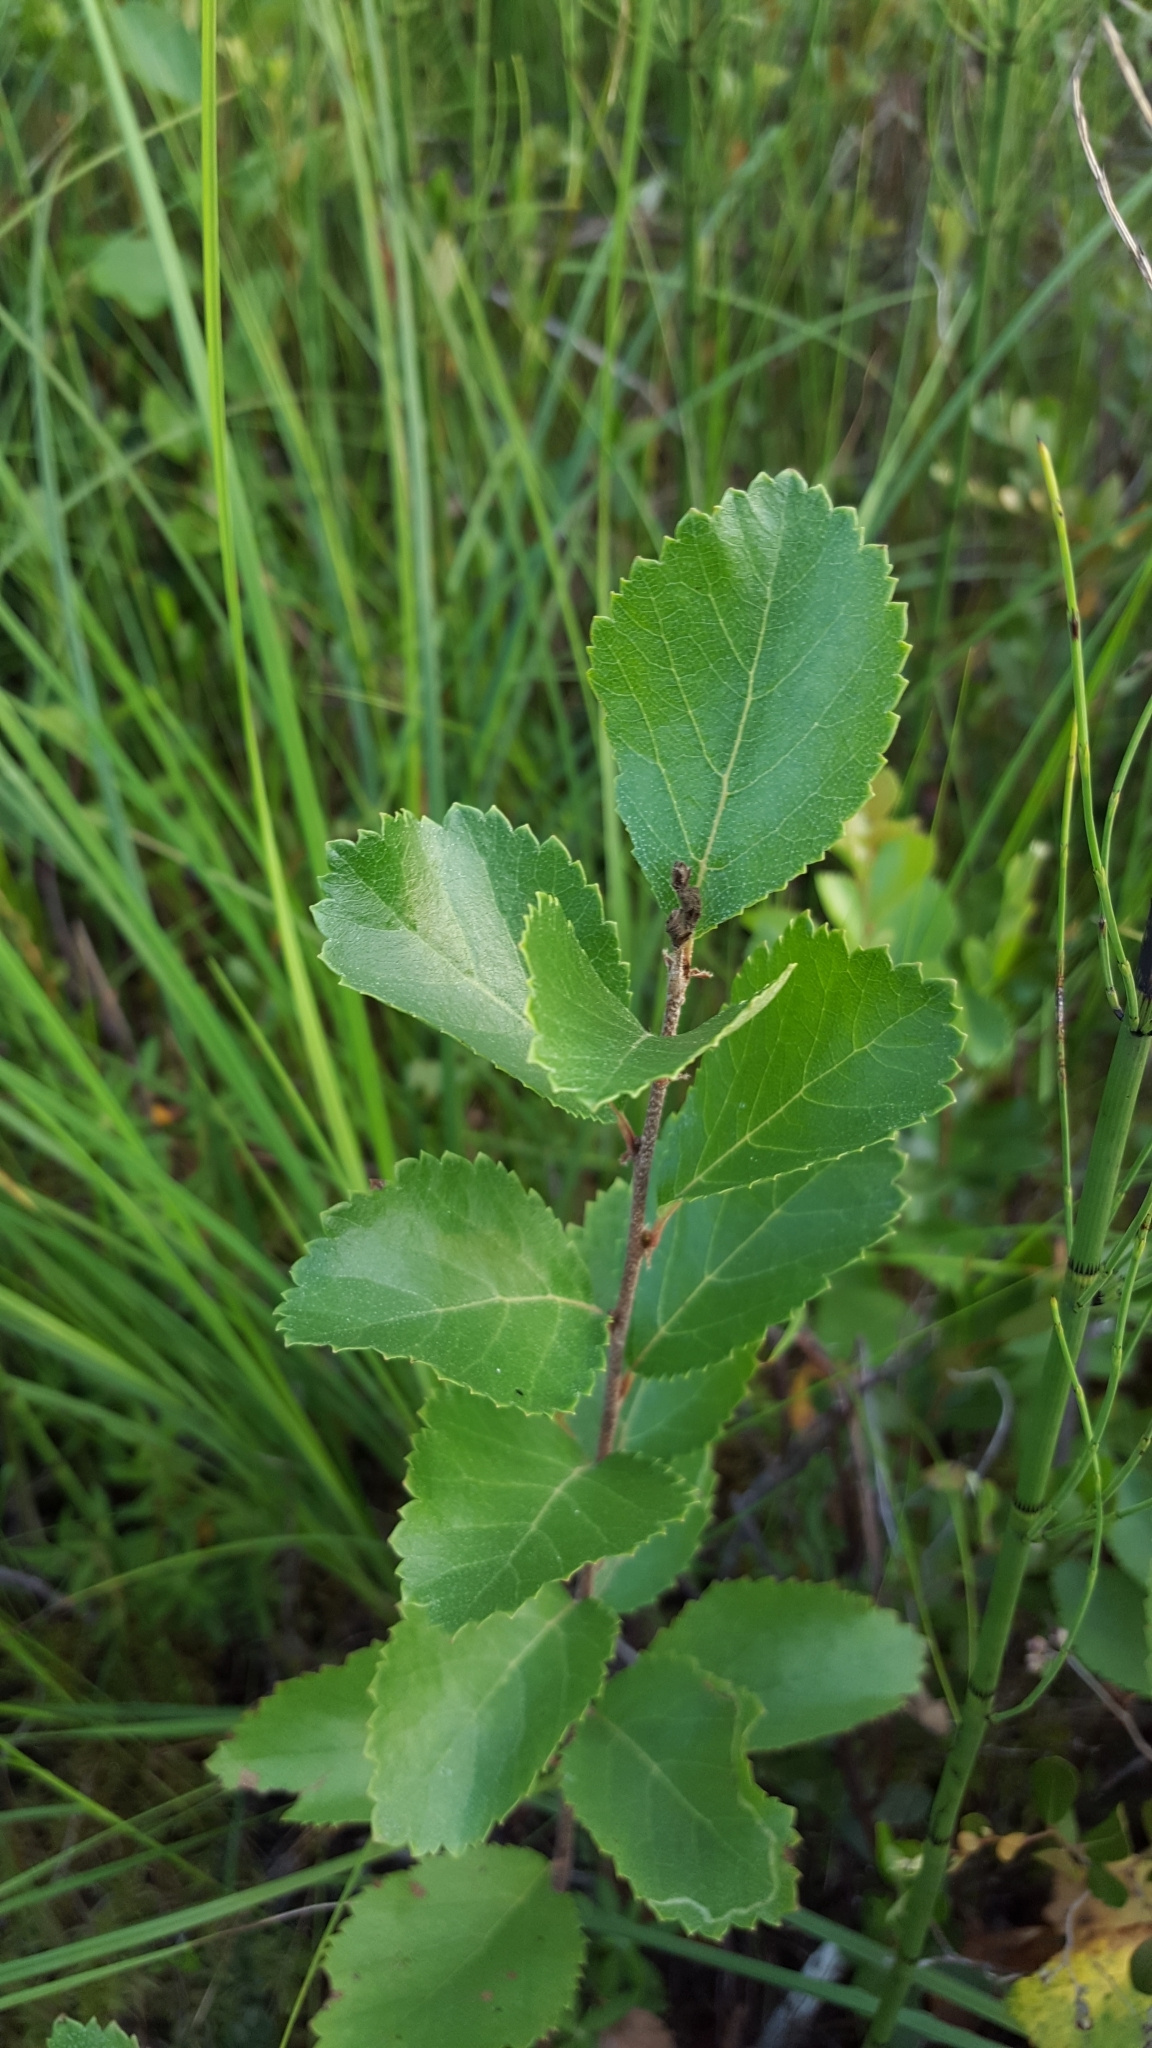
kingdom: Plantae
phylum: Tracheophyta
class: Magnoliopsida
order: Fagales
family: Betulaceae
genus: Betula
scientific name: Betula pumila
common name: Bog birch
